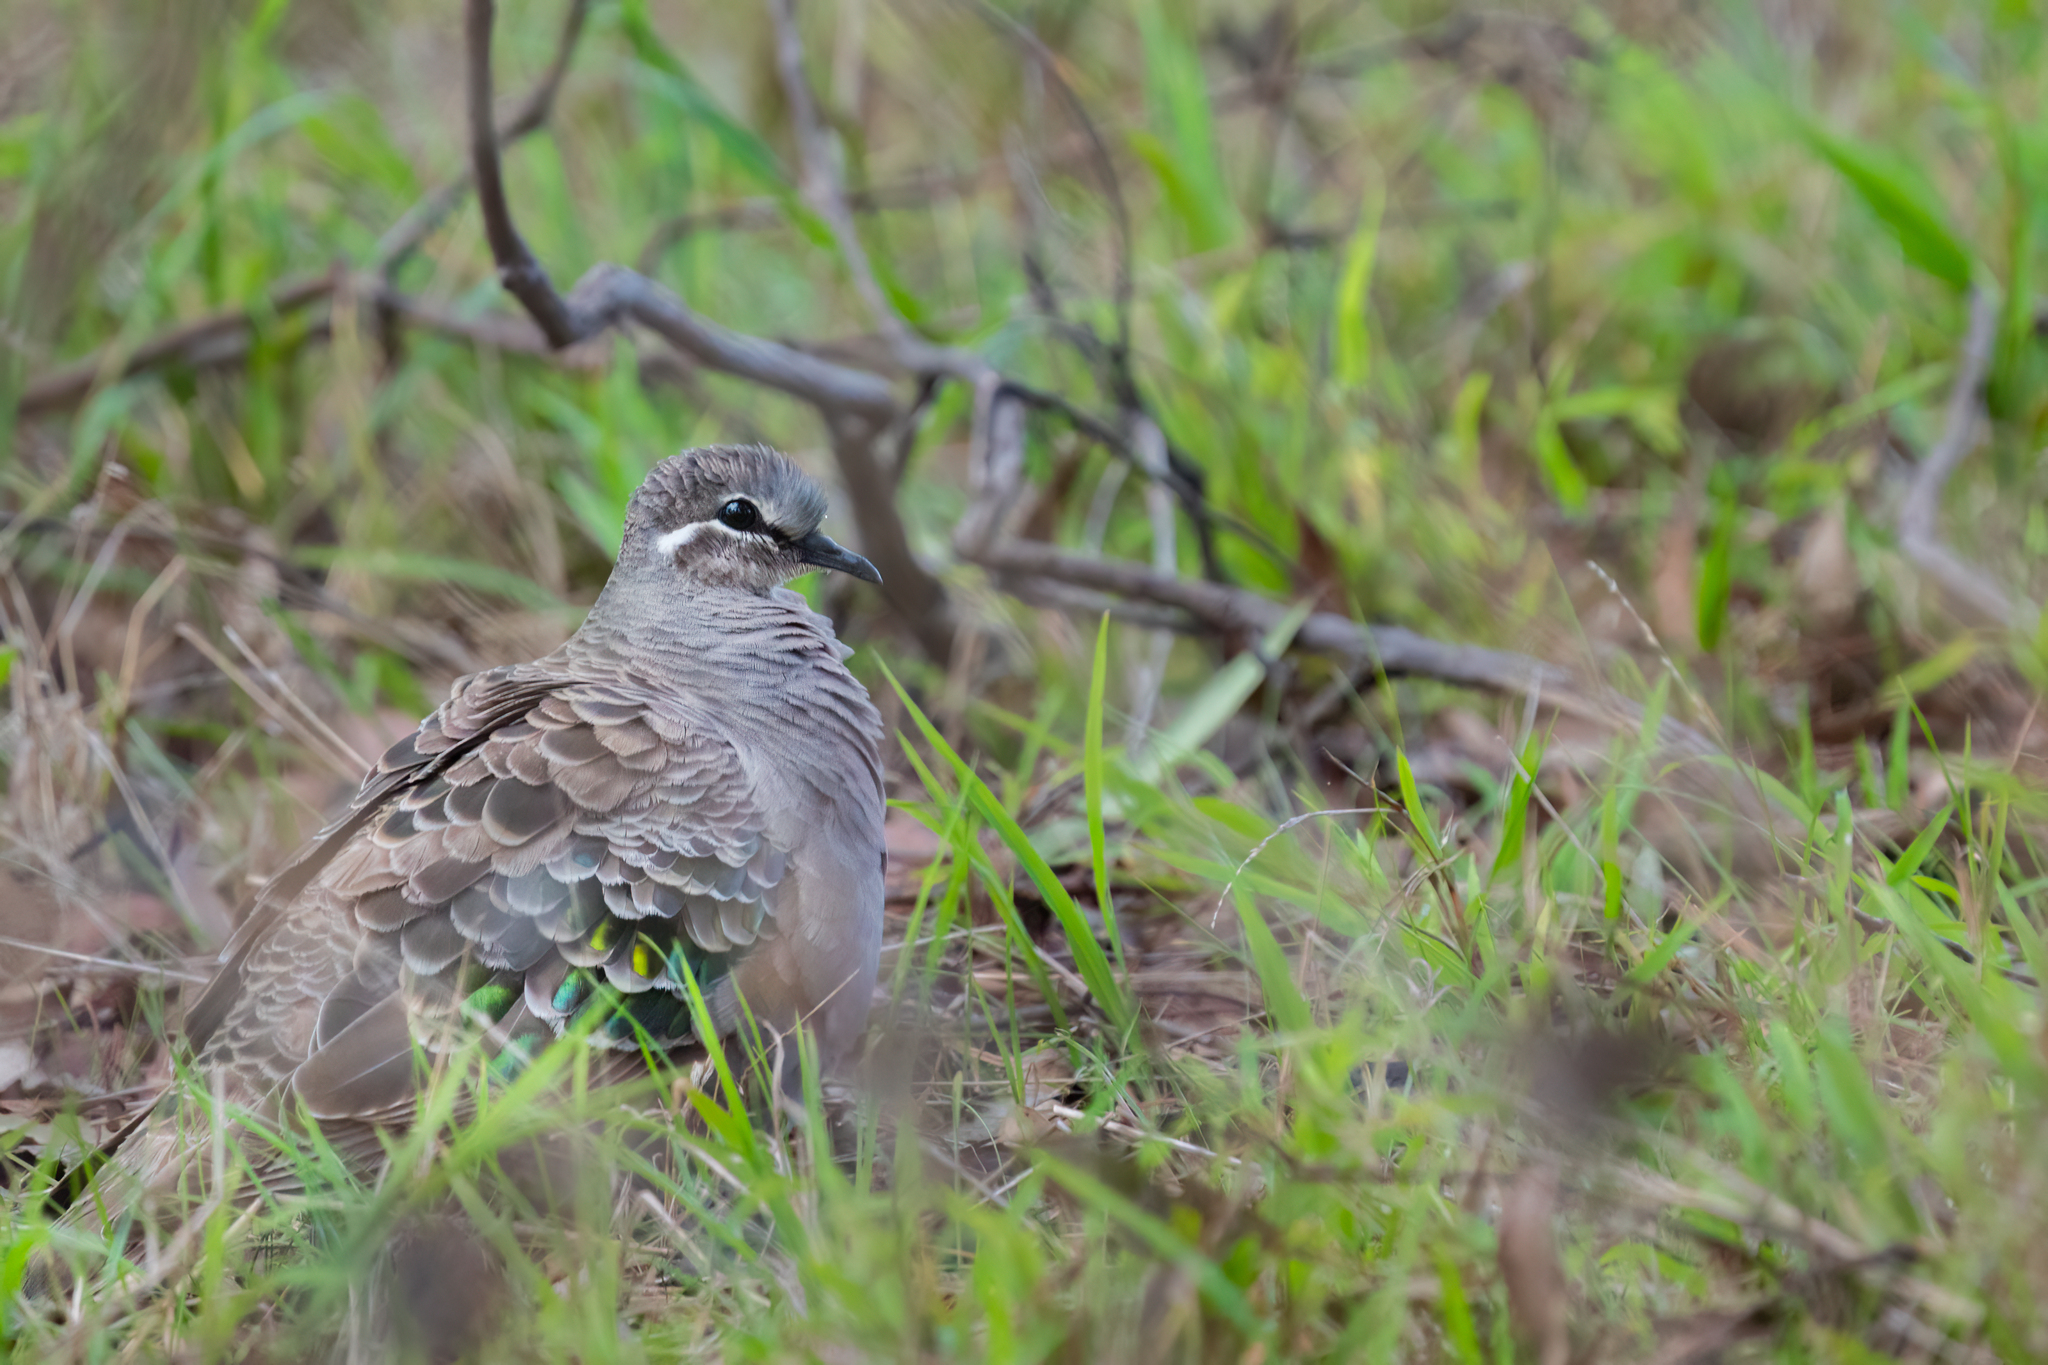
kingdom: Animalia
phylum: Chordata
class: Aves
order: Columbiformes
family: Columbidae
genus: Phaps
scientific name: Phaps chalcoptera
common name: Common bronzewing
